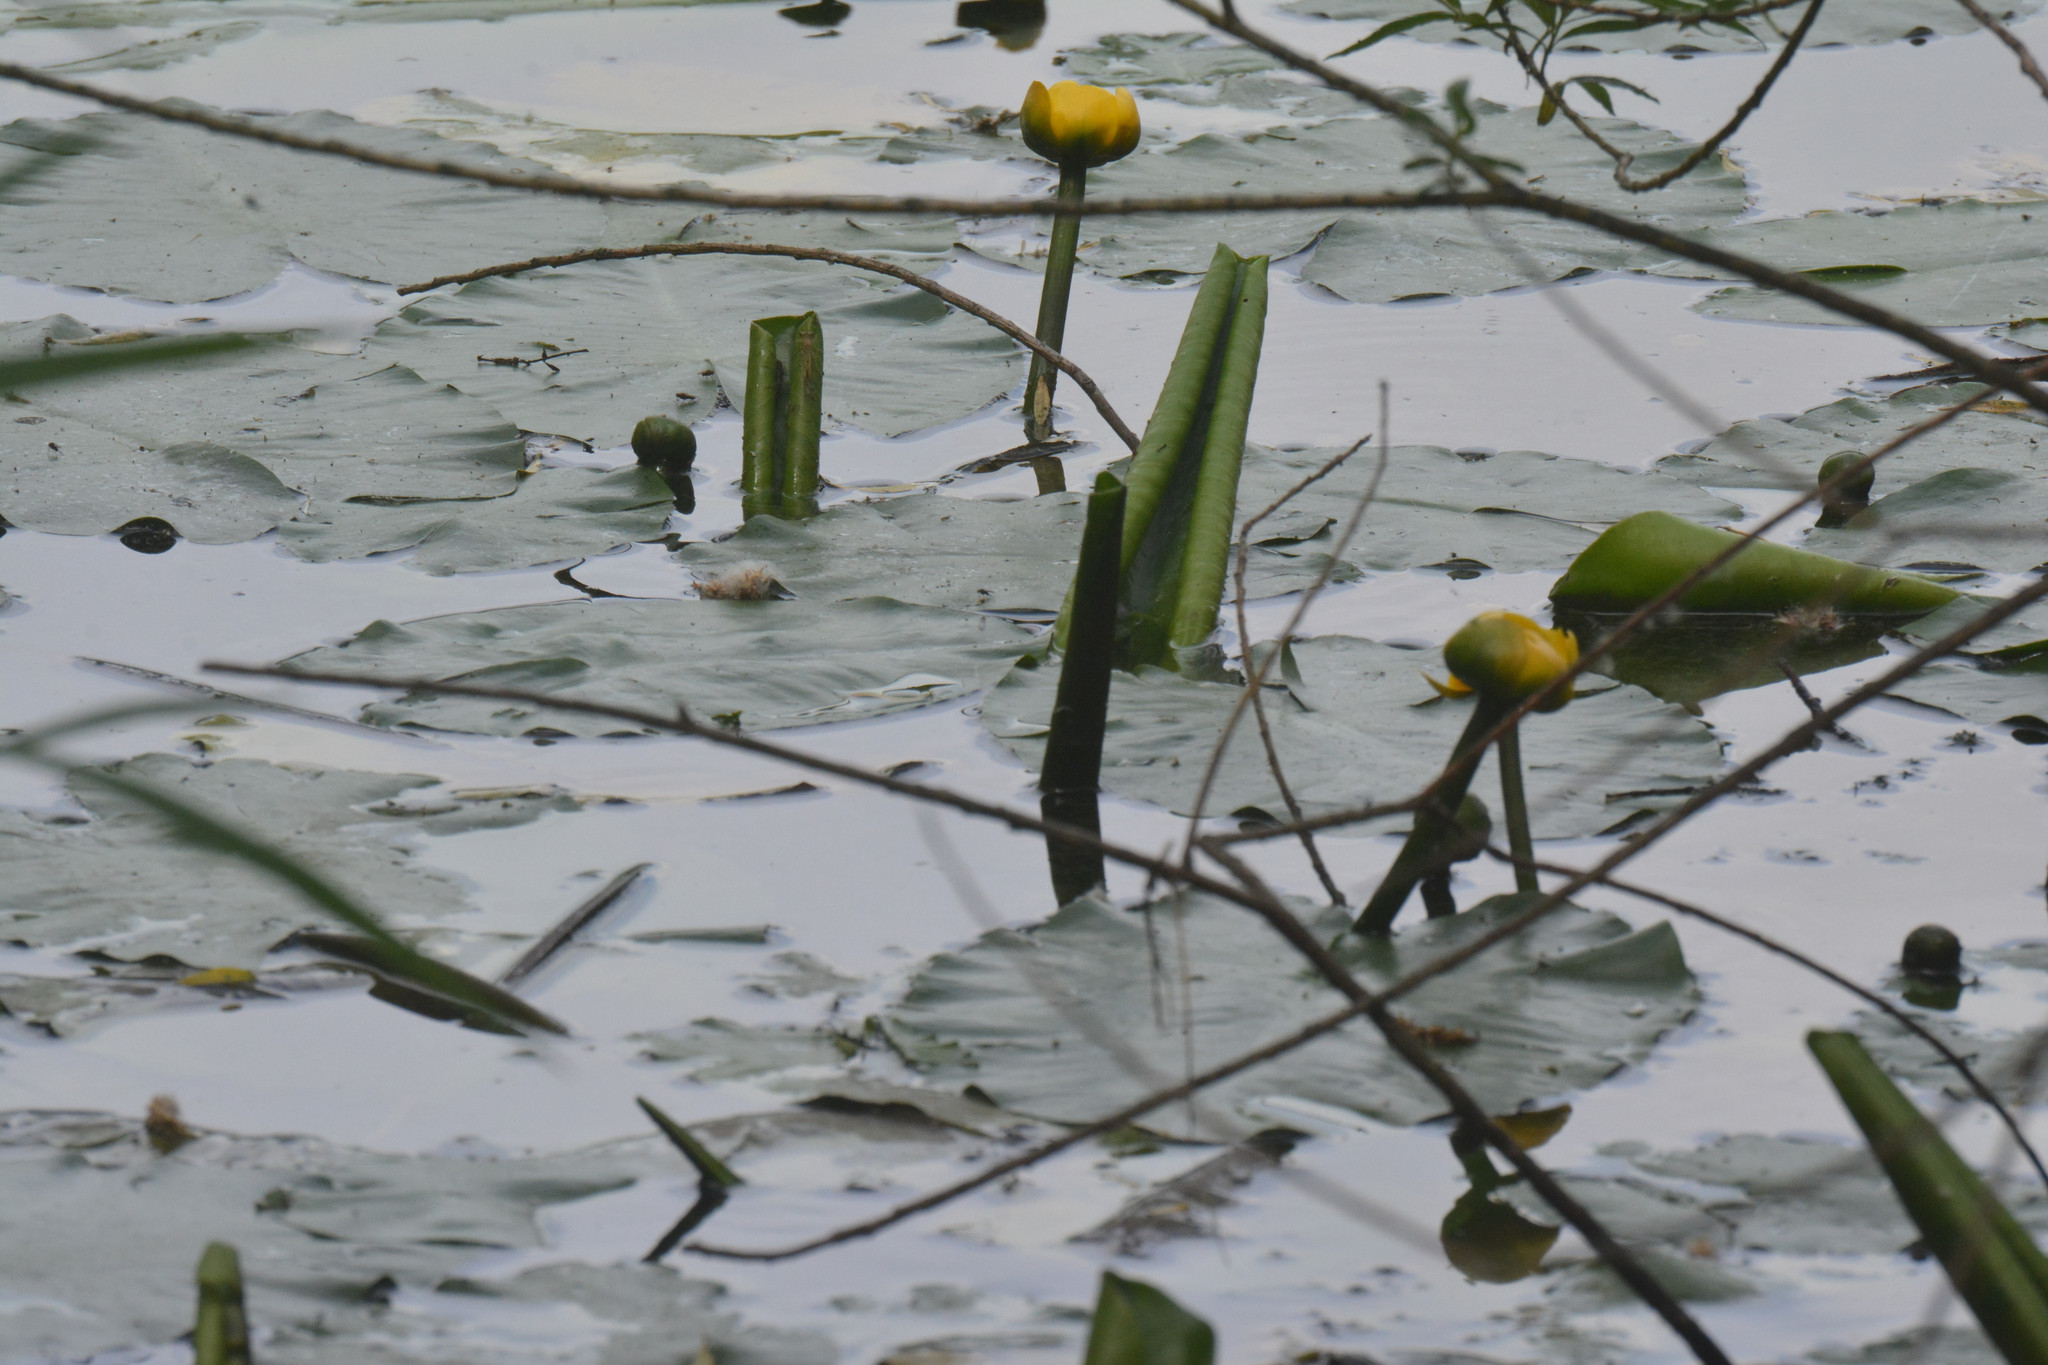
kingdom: Plantae
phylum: Tracheophyta
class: Magnoliopsida
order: Nymphaeales
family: Nymphaeaceae
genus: Nuphar
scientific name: Nuphar lutea
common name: Yellow water-lily
